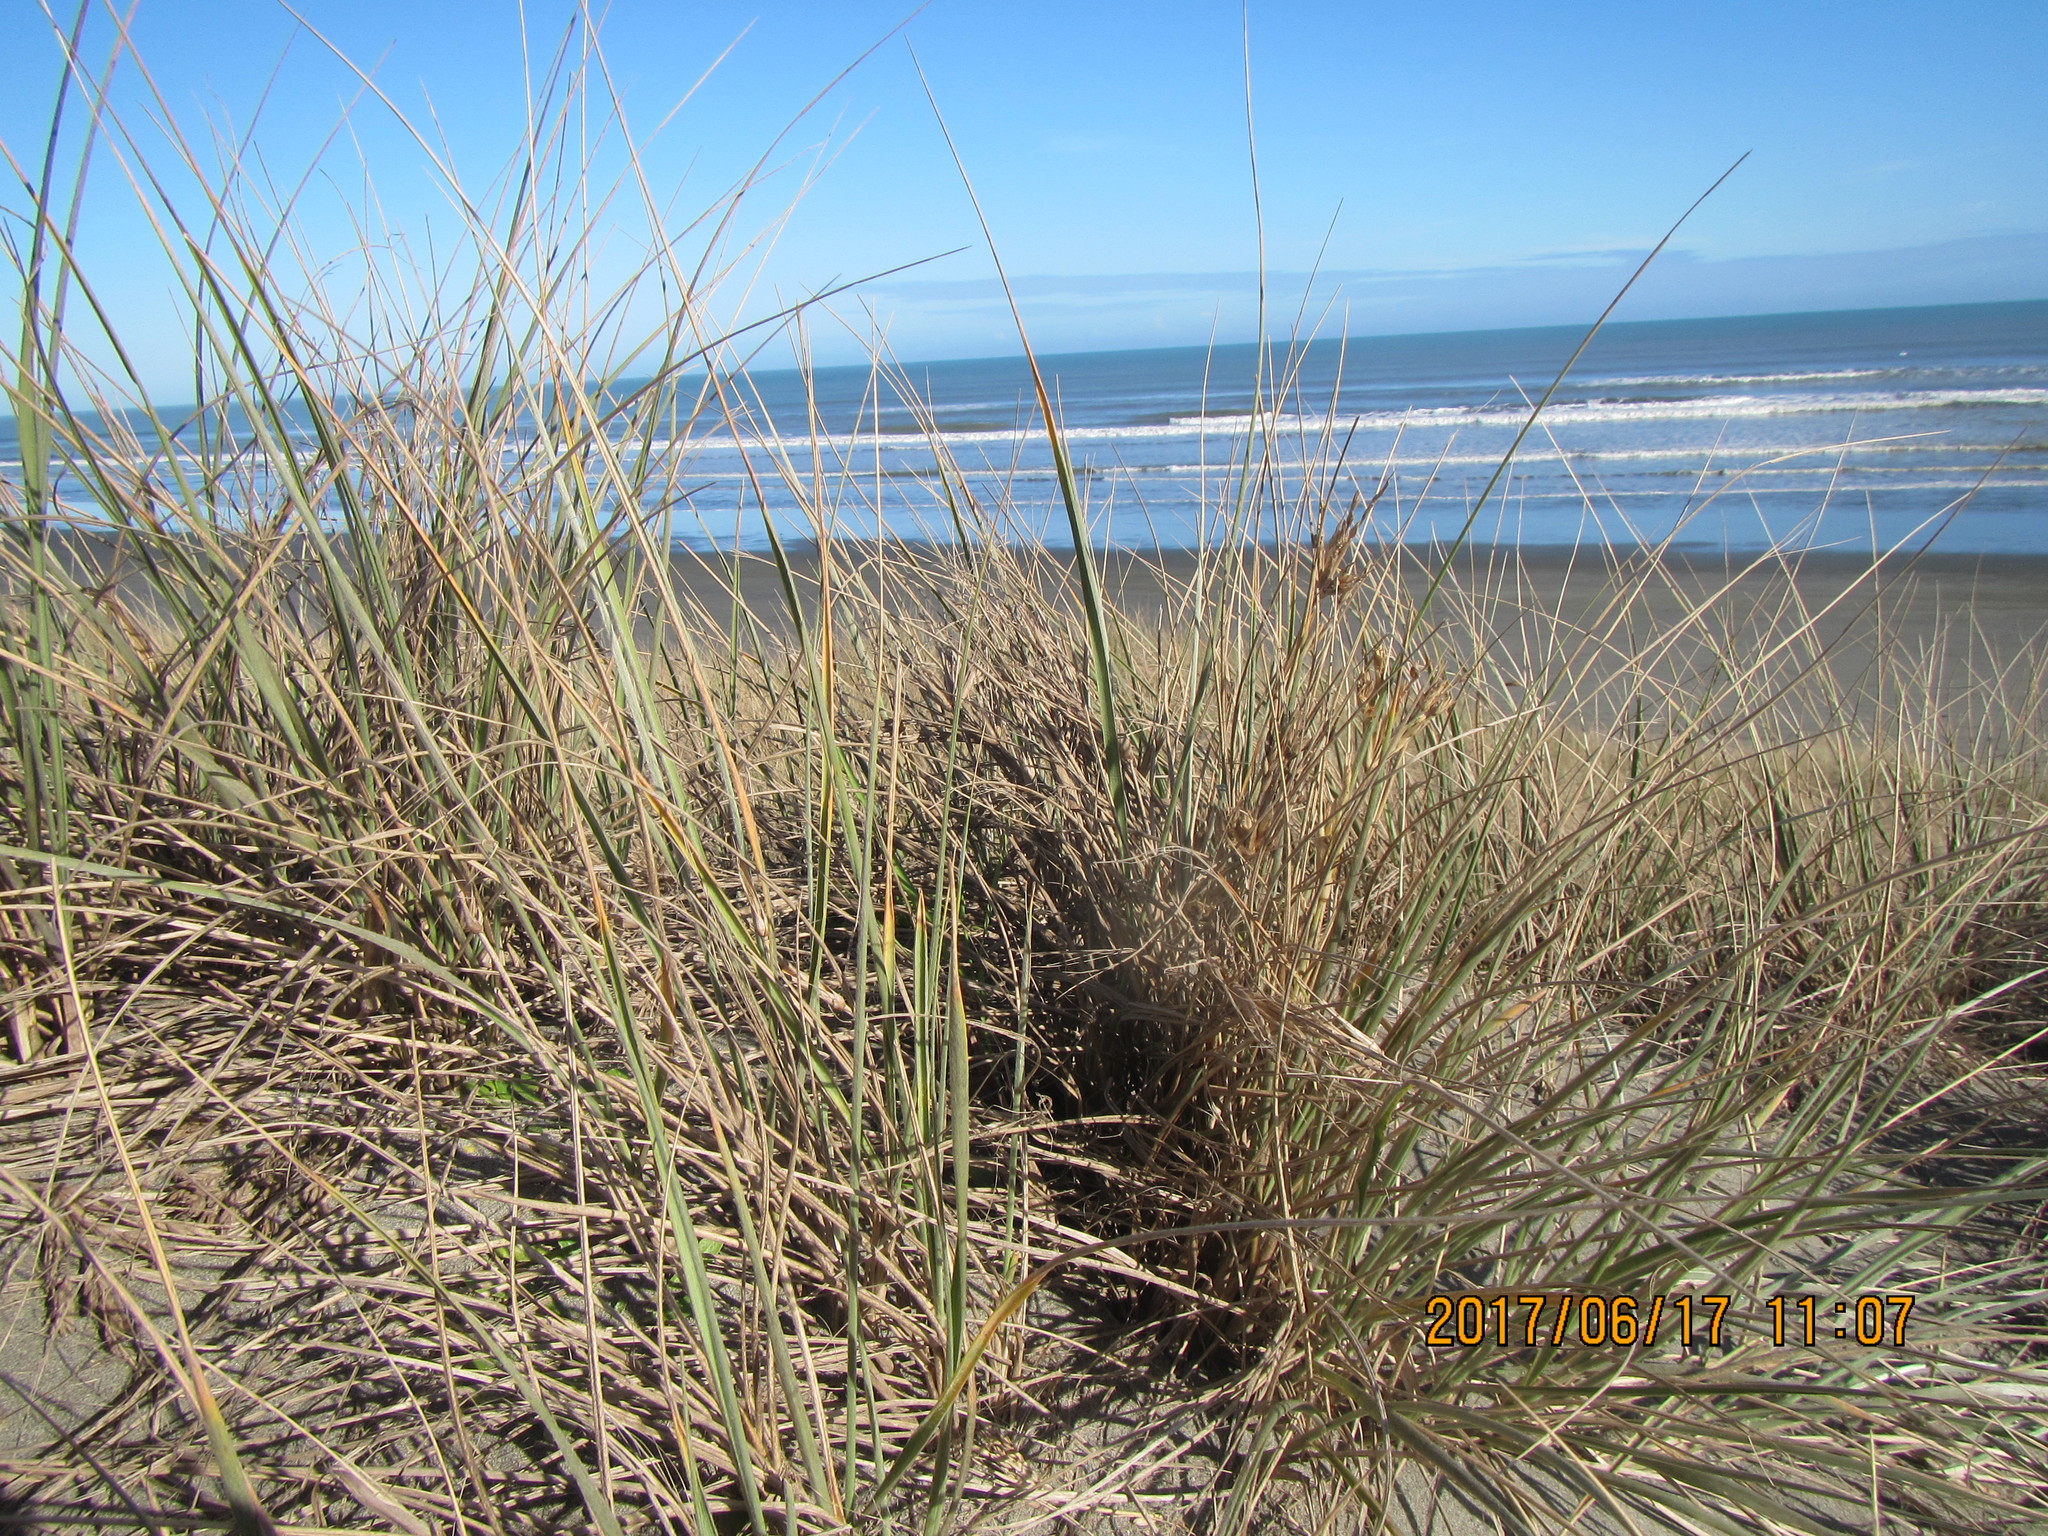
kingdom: Plantae
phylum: Tracheophyta
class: Liliopsida
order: Poales
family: Poaceae
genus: Spinifex
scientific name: Spinifex sericeus
